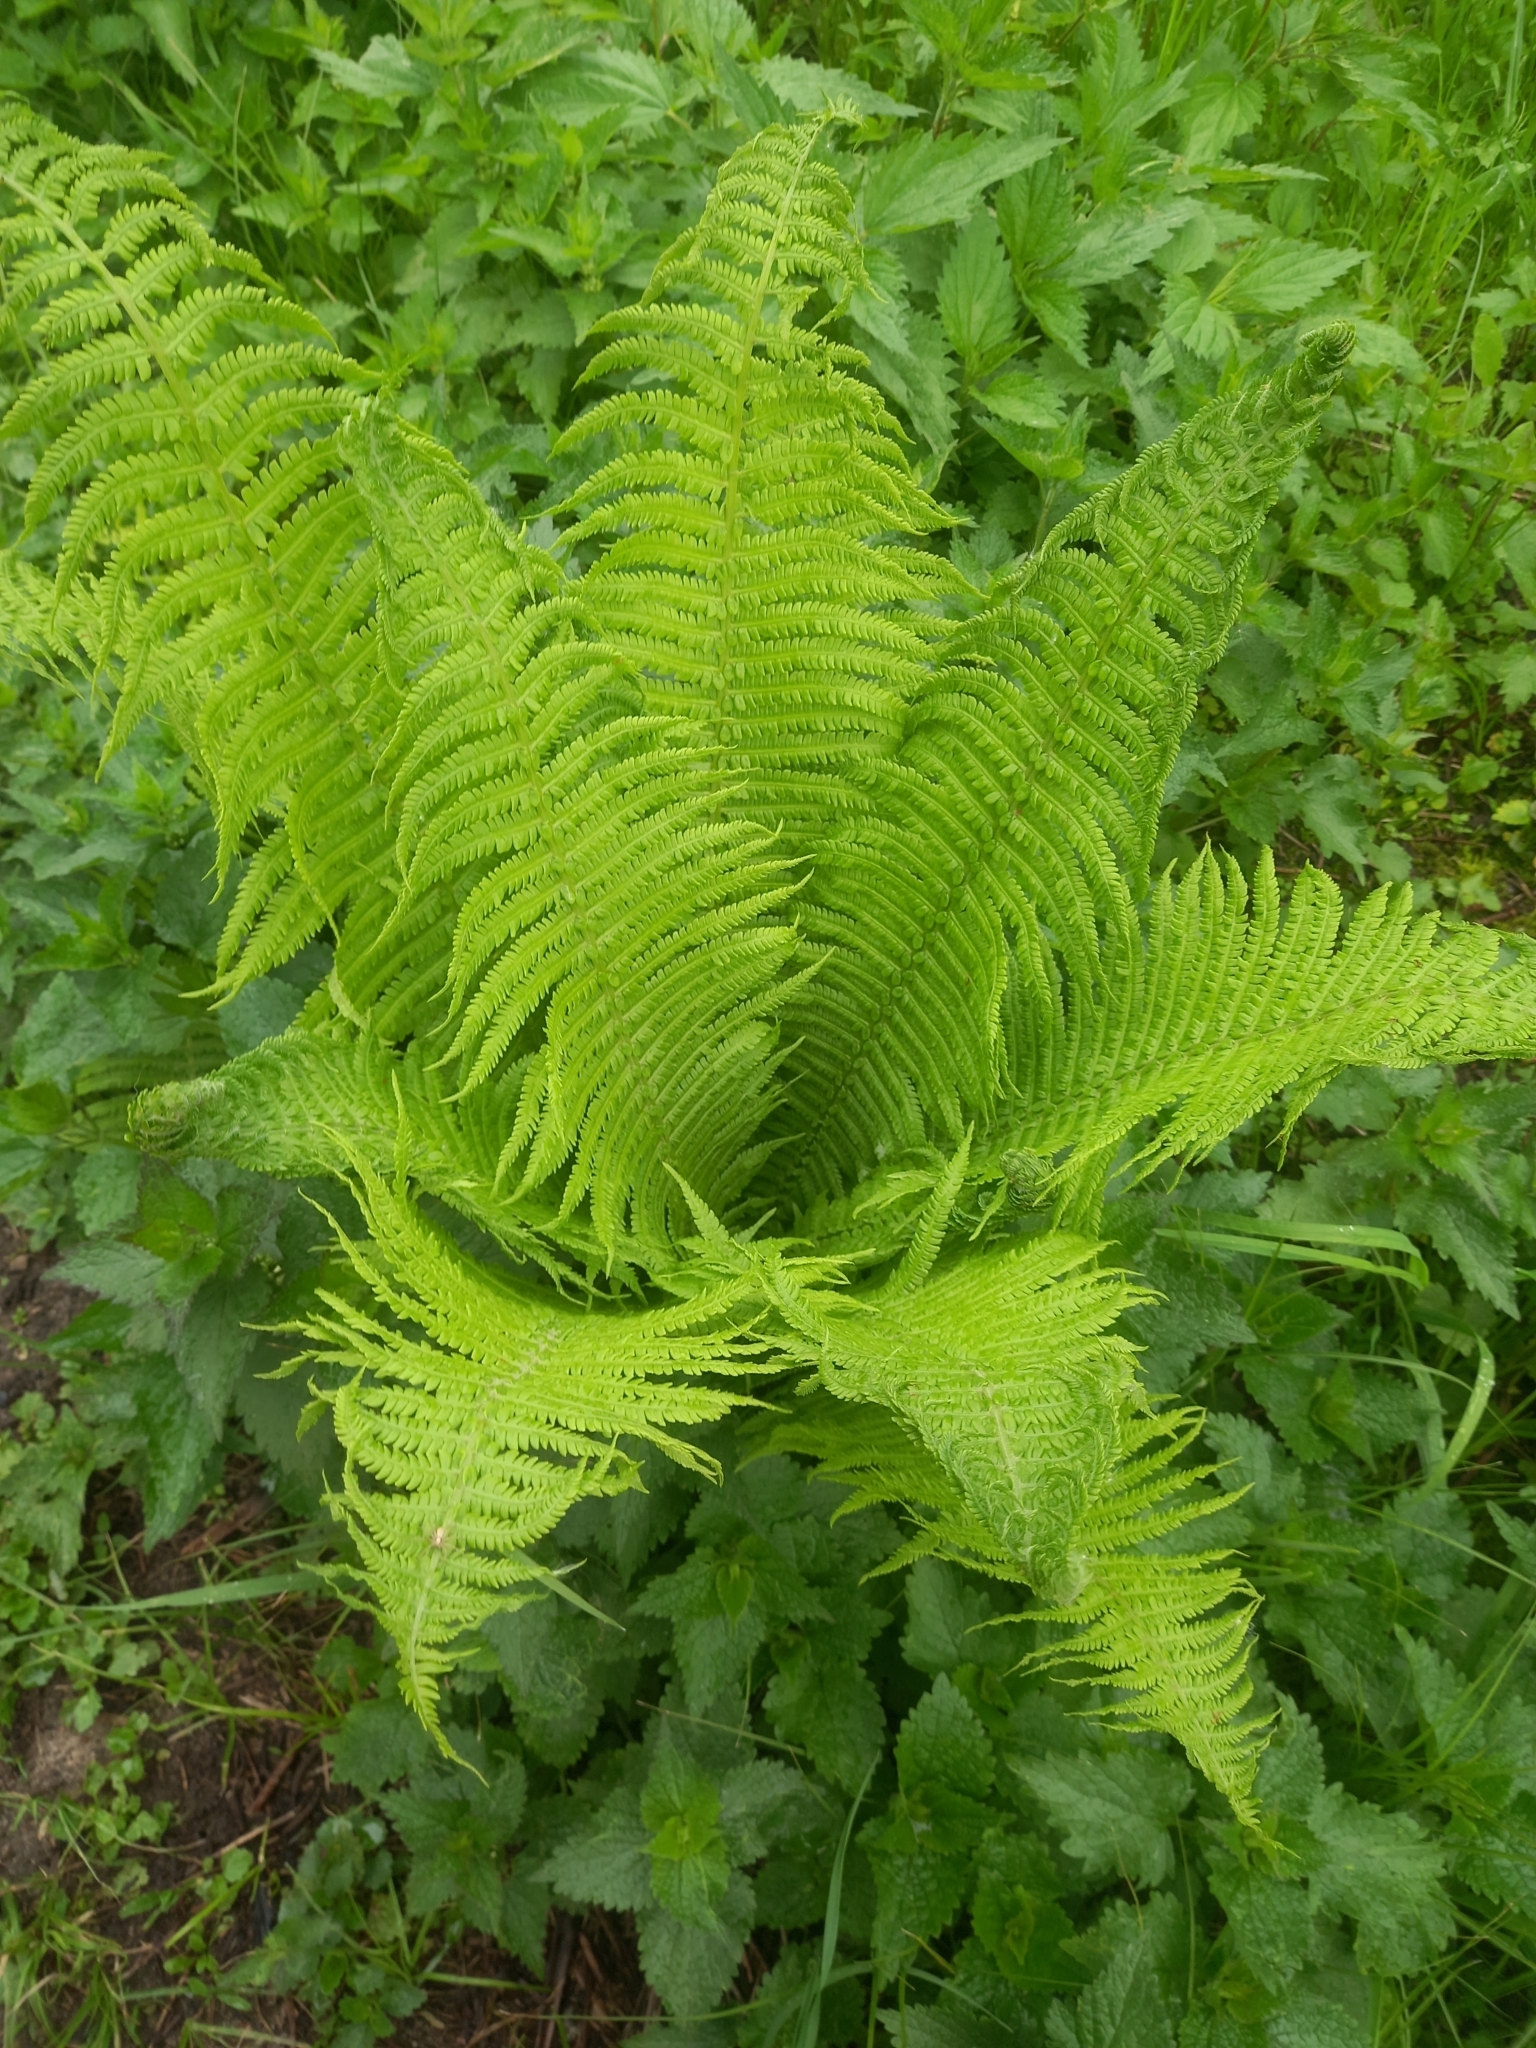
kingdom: Plantae
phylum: Tracheophyta
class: Polypodiopsida
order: Polypodiales
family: Onocleaceae
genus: Matteuccia
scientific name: Matteuccia struthiopteris
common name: Ostrich fern
